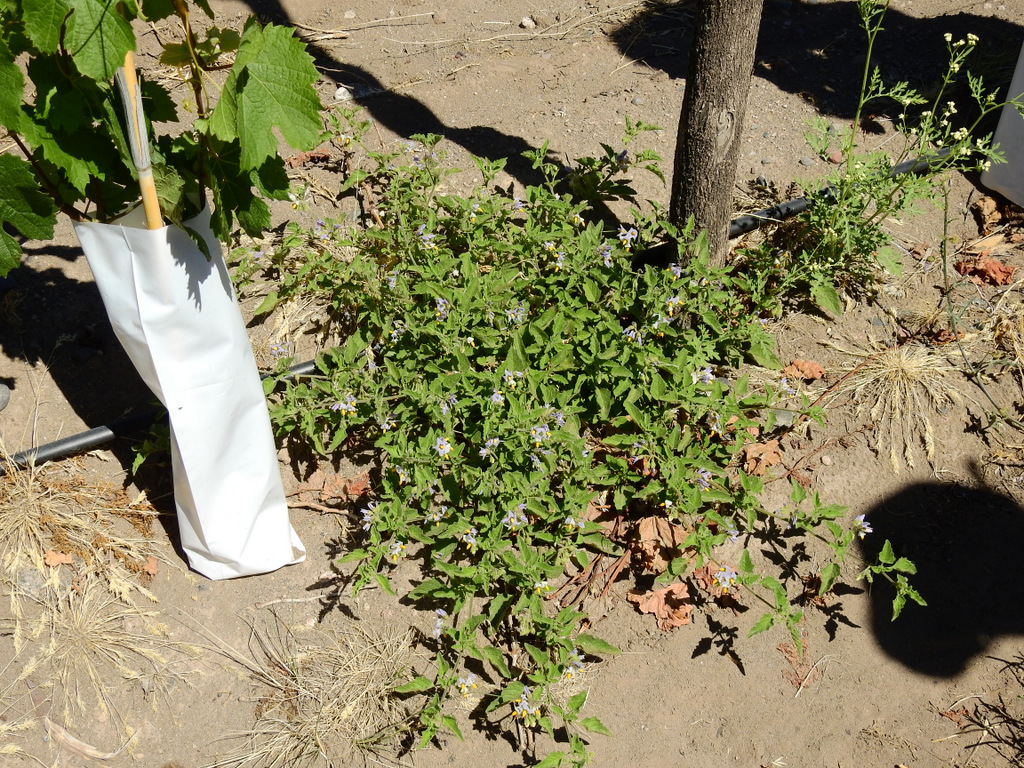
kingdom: Plantae
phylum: Tracheophyta
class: Magnoliopsida
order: Solanales
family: Solanaceae
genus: Solanum
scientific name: Solanum tweedianum
